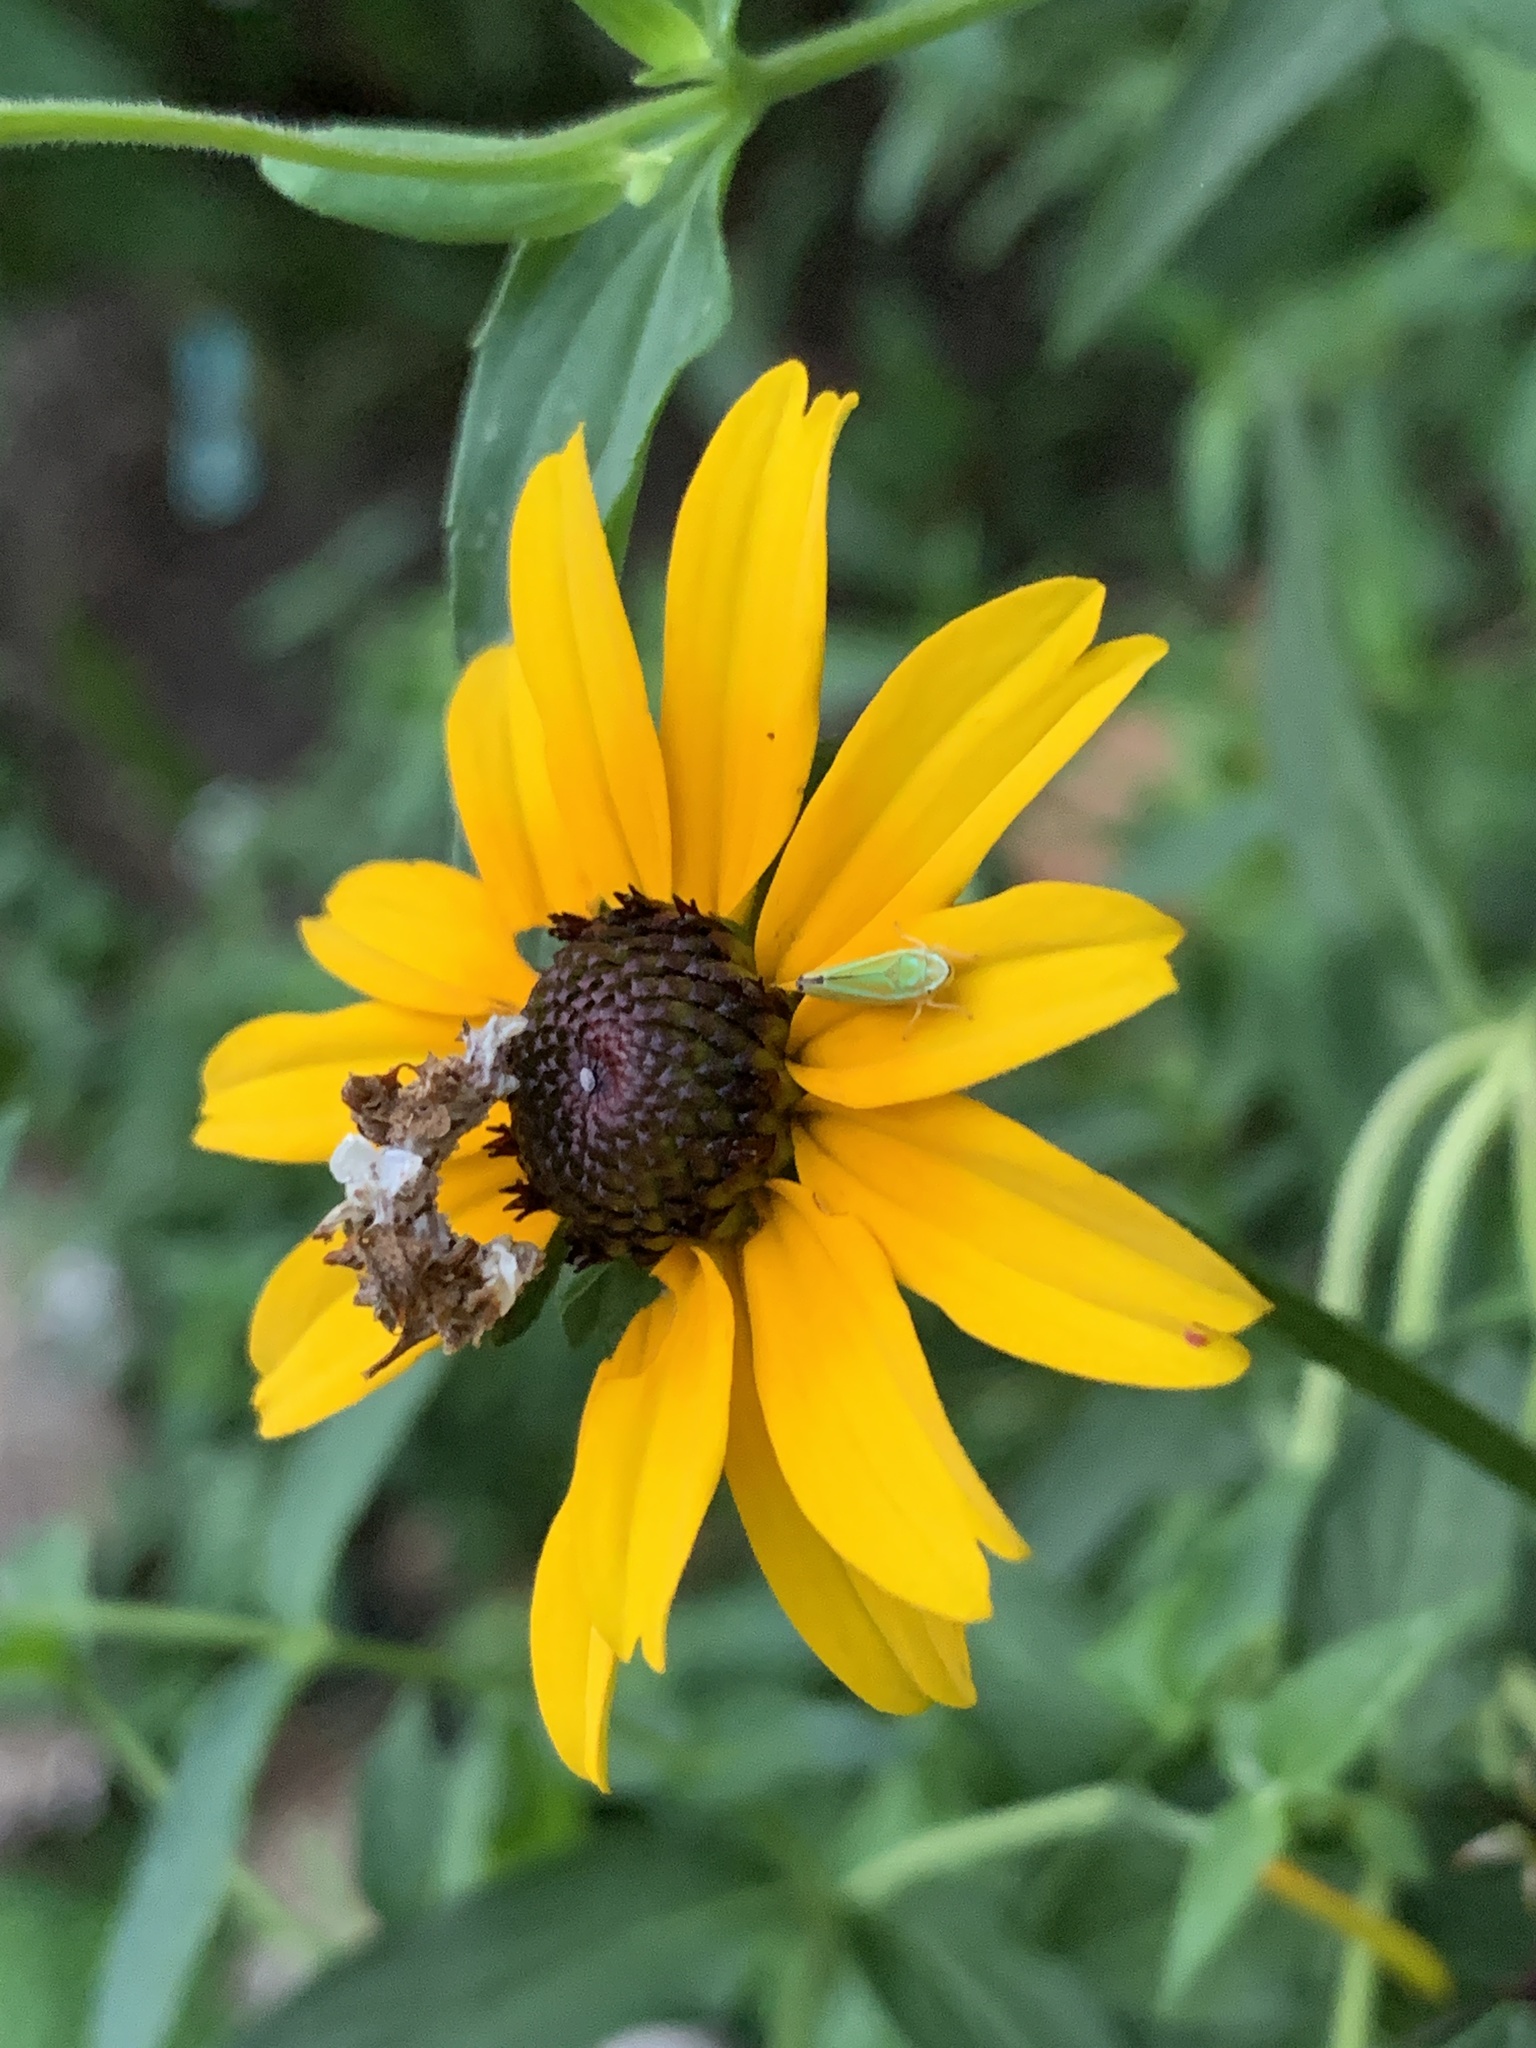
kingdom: Animalia
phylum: Arthropoda
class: Insecta
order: Lepidoptera
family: Geometridae
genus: Synchlora
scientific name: Synchlora aerata
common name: Wavy-lined emerald
